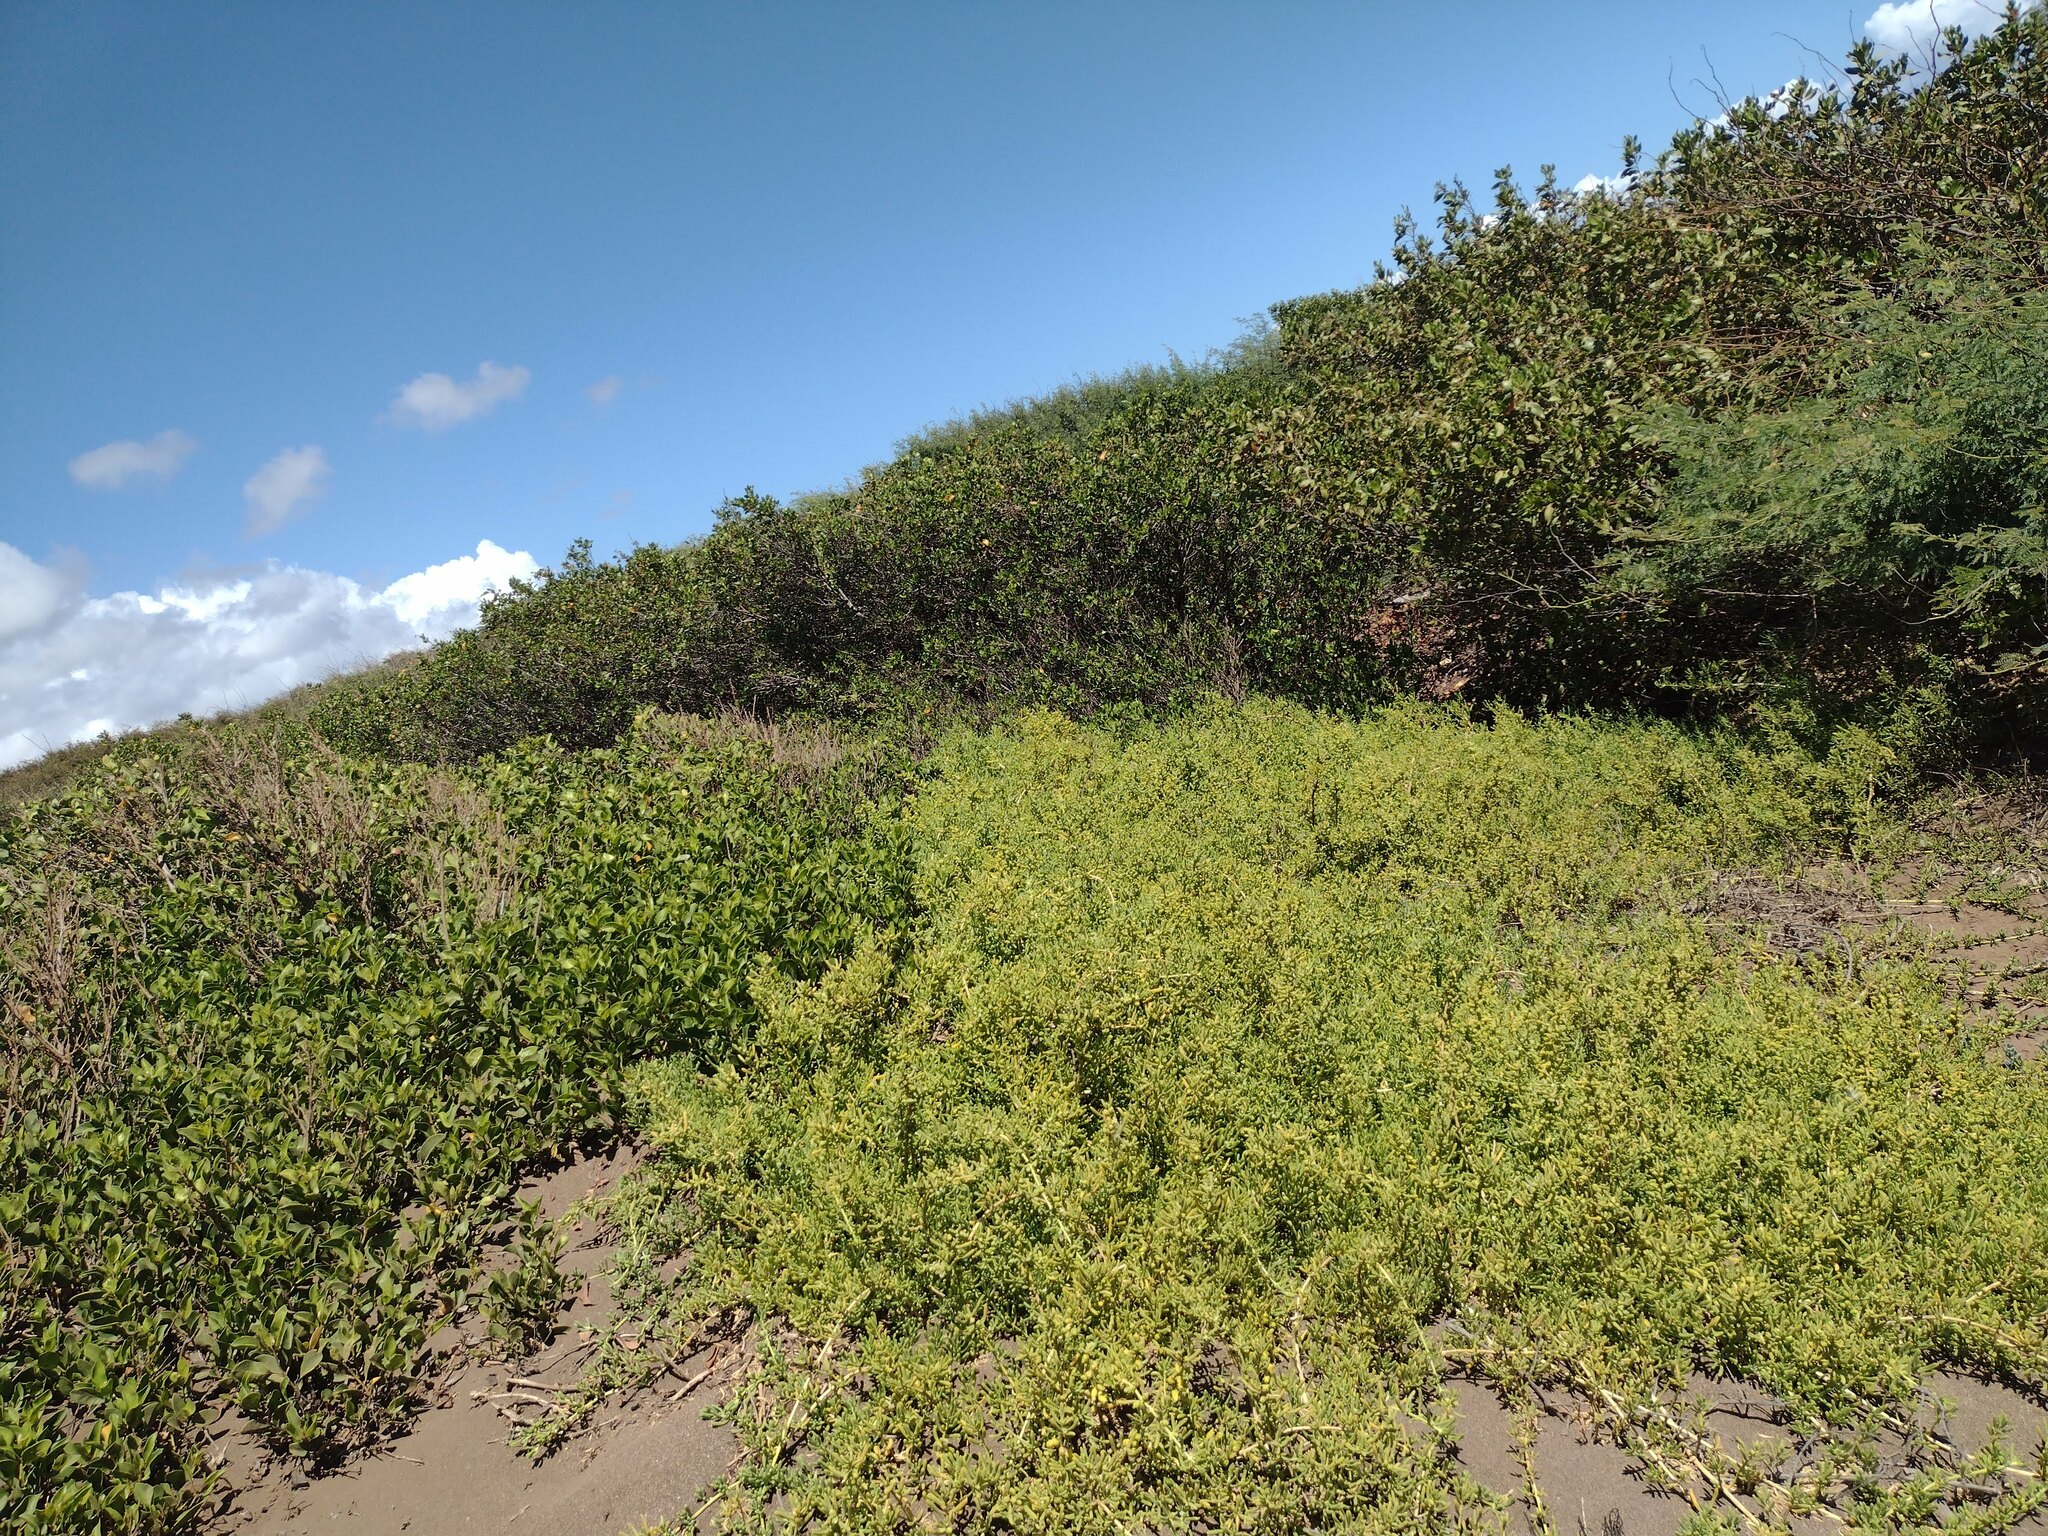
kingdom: Plantae
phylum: Tracheophyta
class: Magnoliopsida
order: Brassicales
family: Bataceae
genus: Batis
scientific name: Batis maritima
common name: Turtleweed
